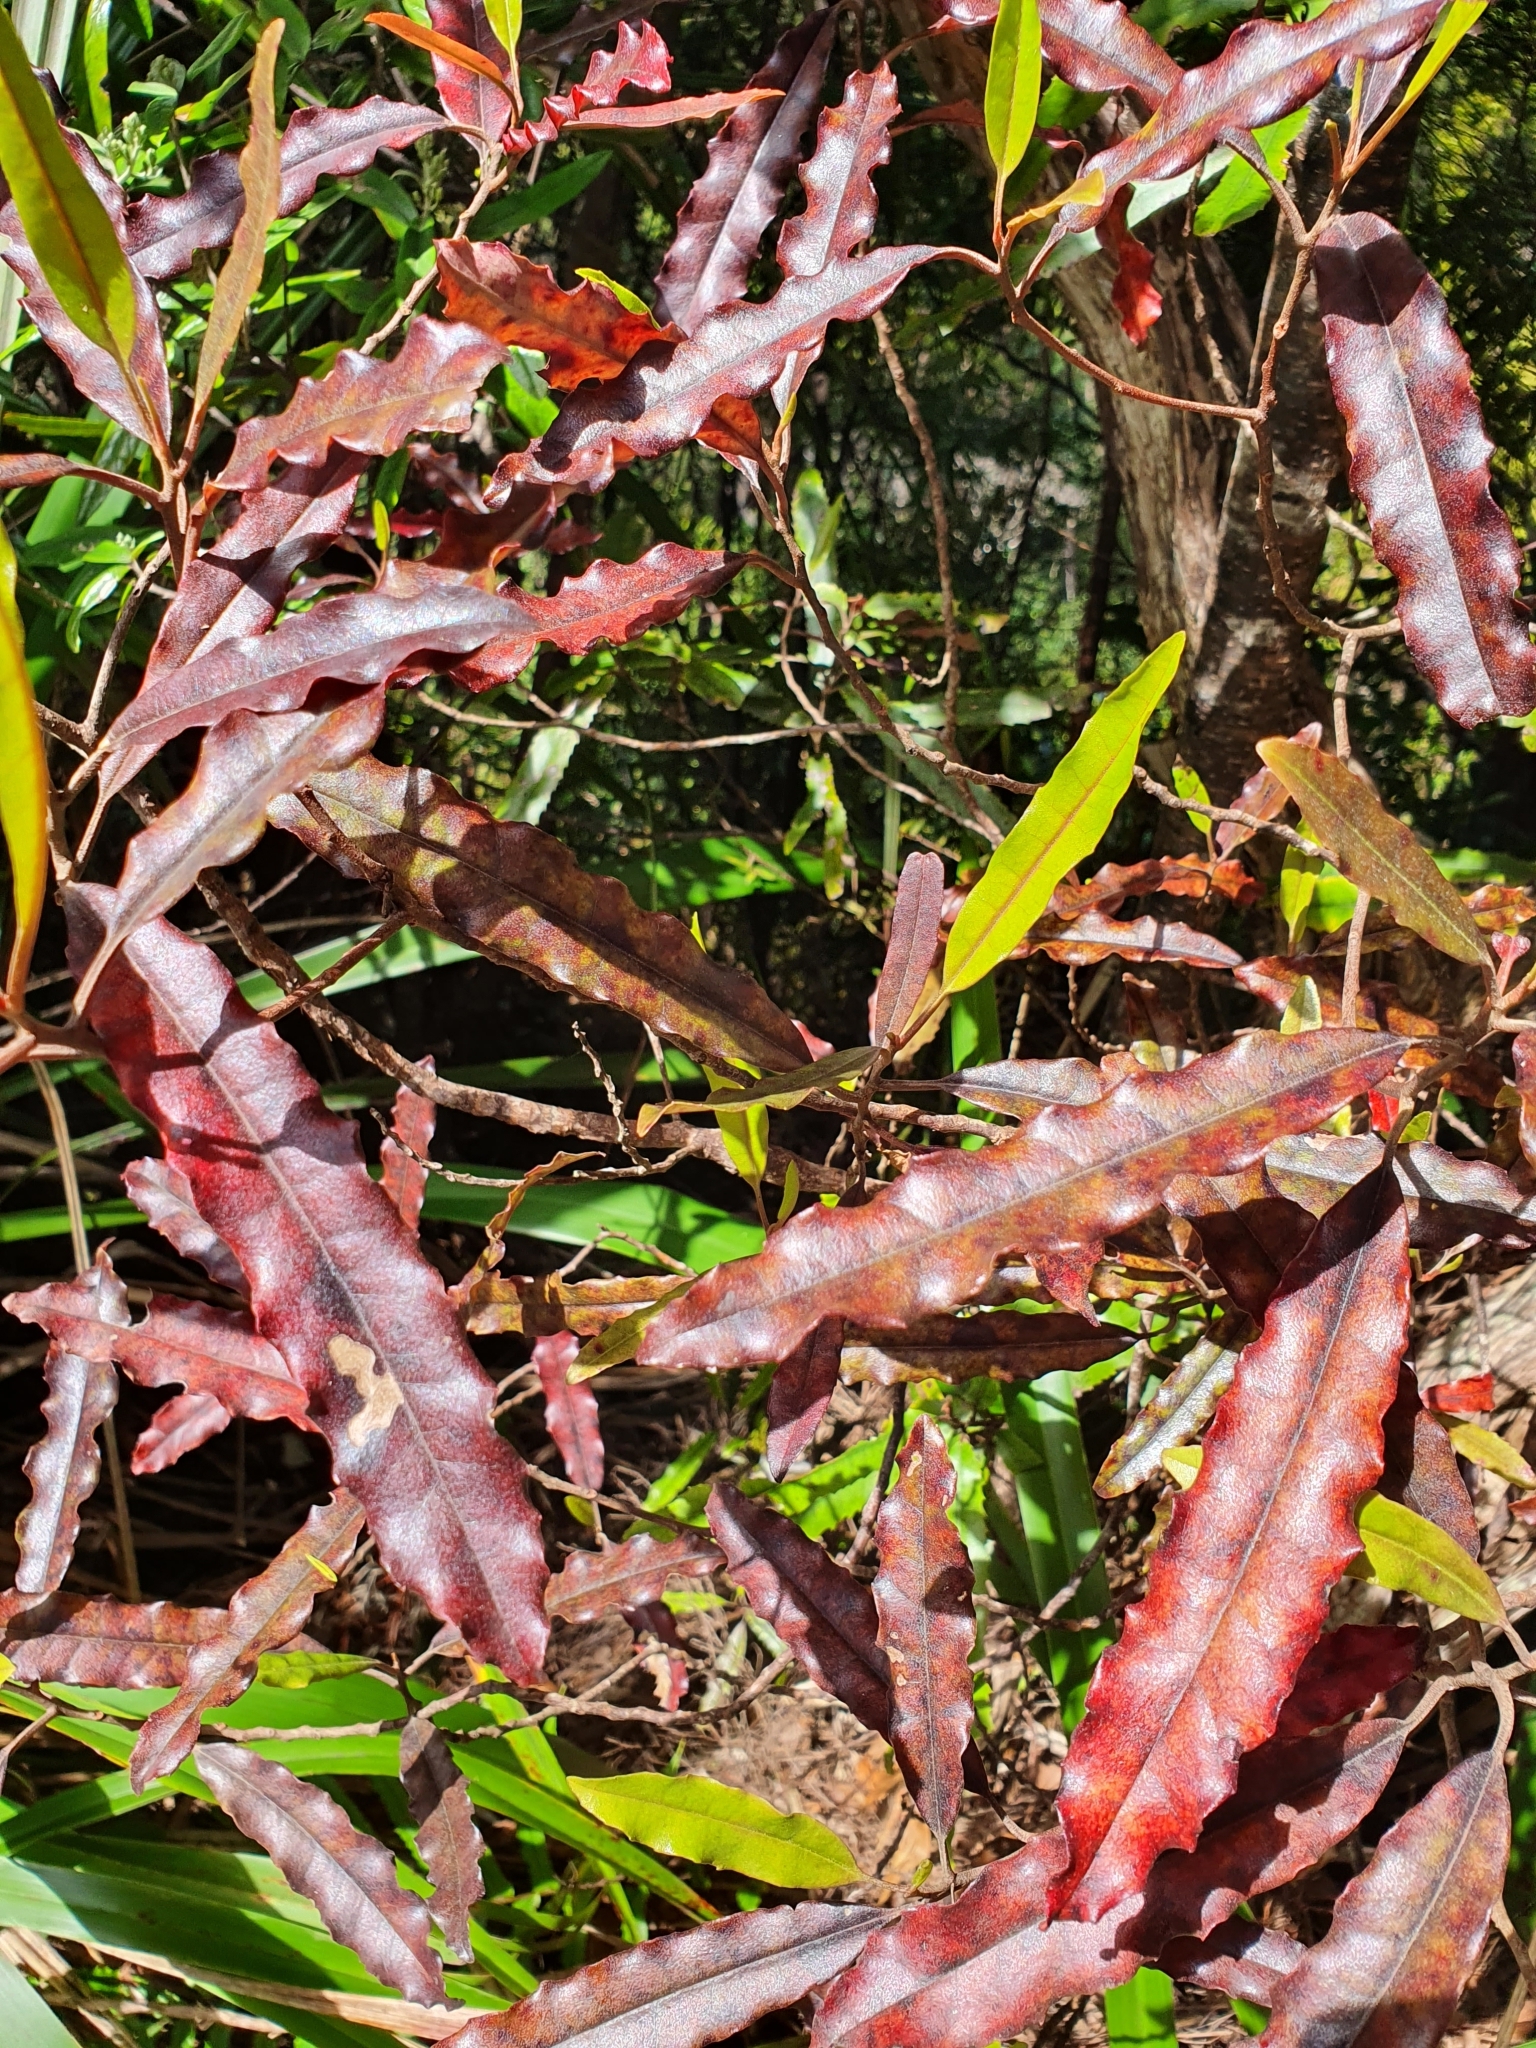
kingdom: Plantae
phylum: Tracheophyta
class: Magnoliopsida
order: Paracryphiales
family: Paracryphiaceae
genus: Quintinia
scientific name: Quintinia serrata
